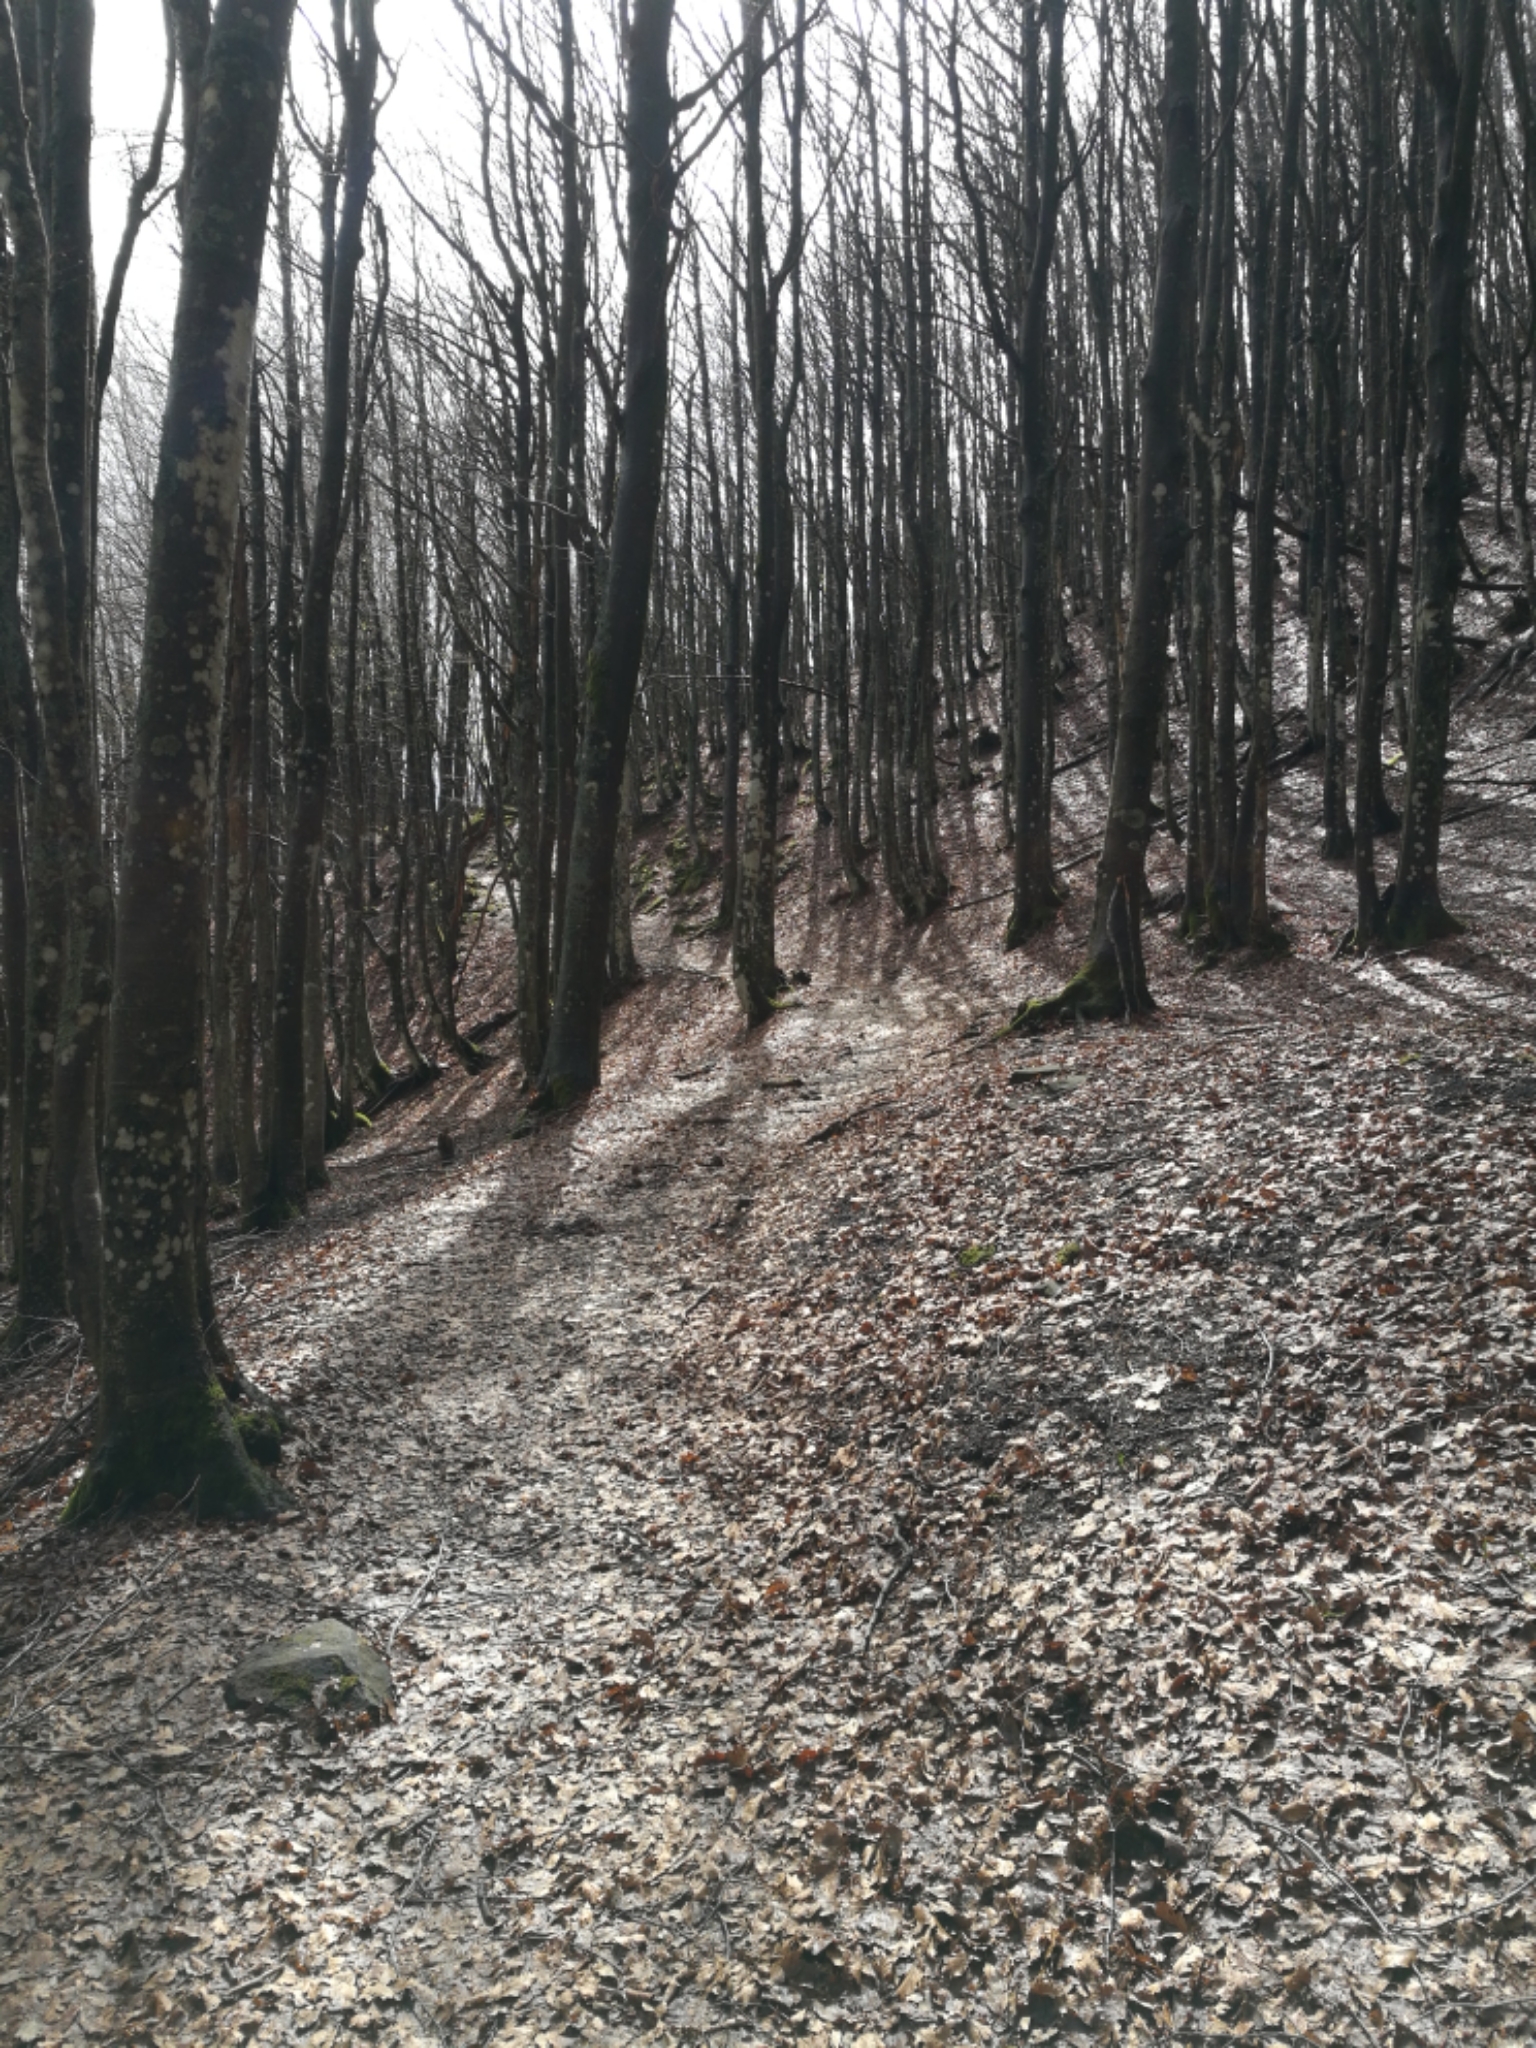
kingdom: Plantae
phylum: Tracheophyta
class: Magnoliopsida
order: Fagales
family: Fagaceae
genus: Fagus
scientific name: Fagus sylvatica
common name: Beech
